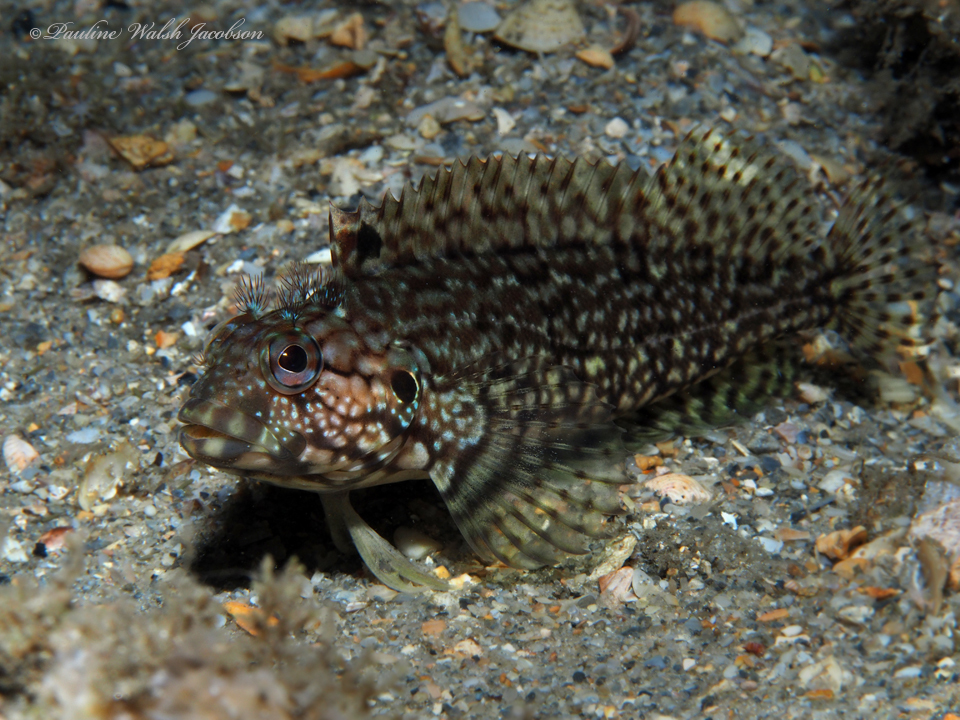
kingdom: Animalia
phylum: Chordata
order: Perciformes
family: Labrisomidae
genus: Labrisomus
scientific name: Labrisomus conditus
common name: Masquerader hairy blenny
